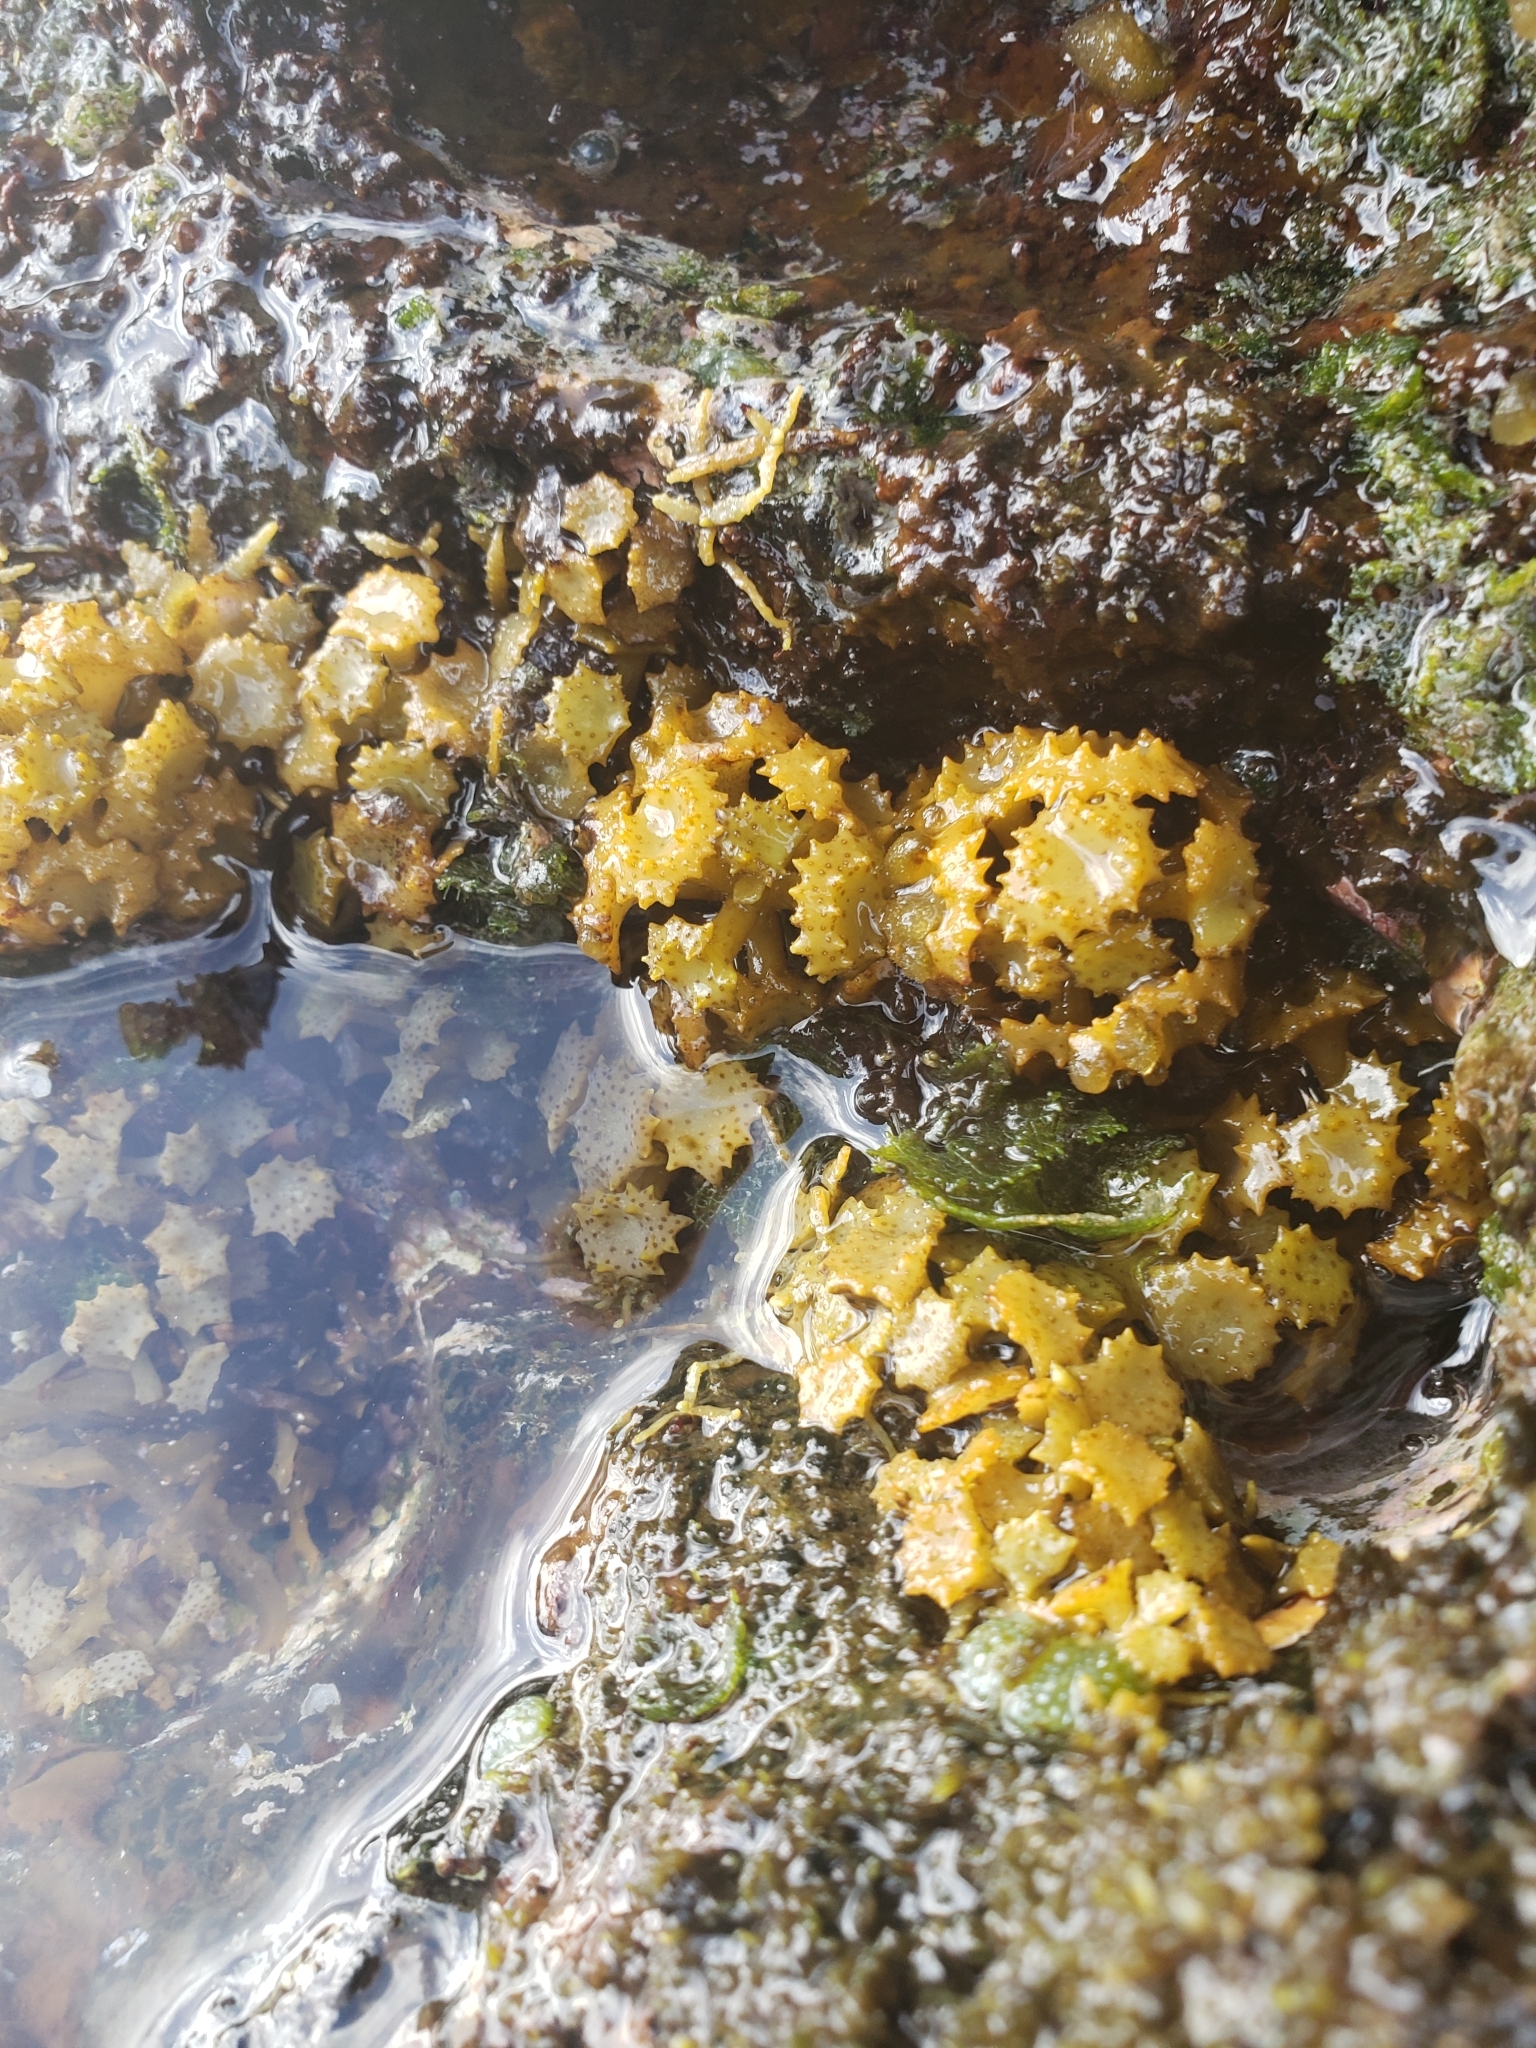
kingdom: Chromista
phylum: Ochrophyta
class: Phaeophyceae
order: Fucales
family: Sargassaceae
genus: Turbinaria
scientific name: Turbinaria ornata
